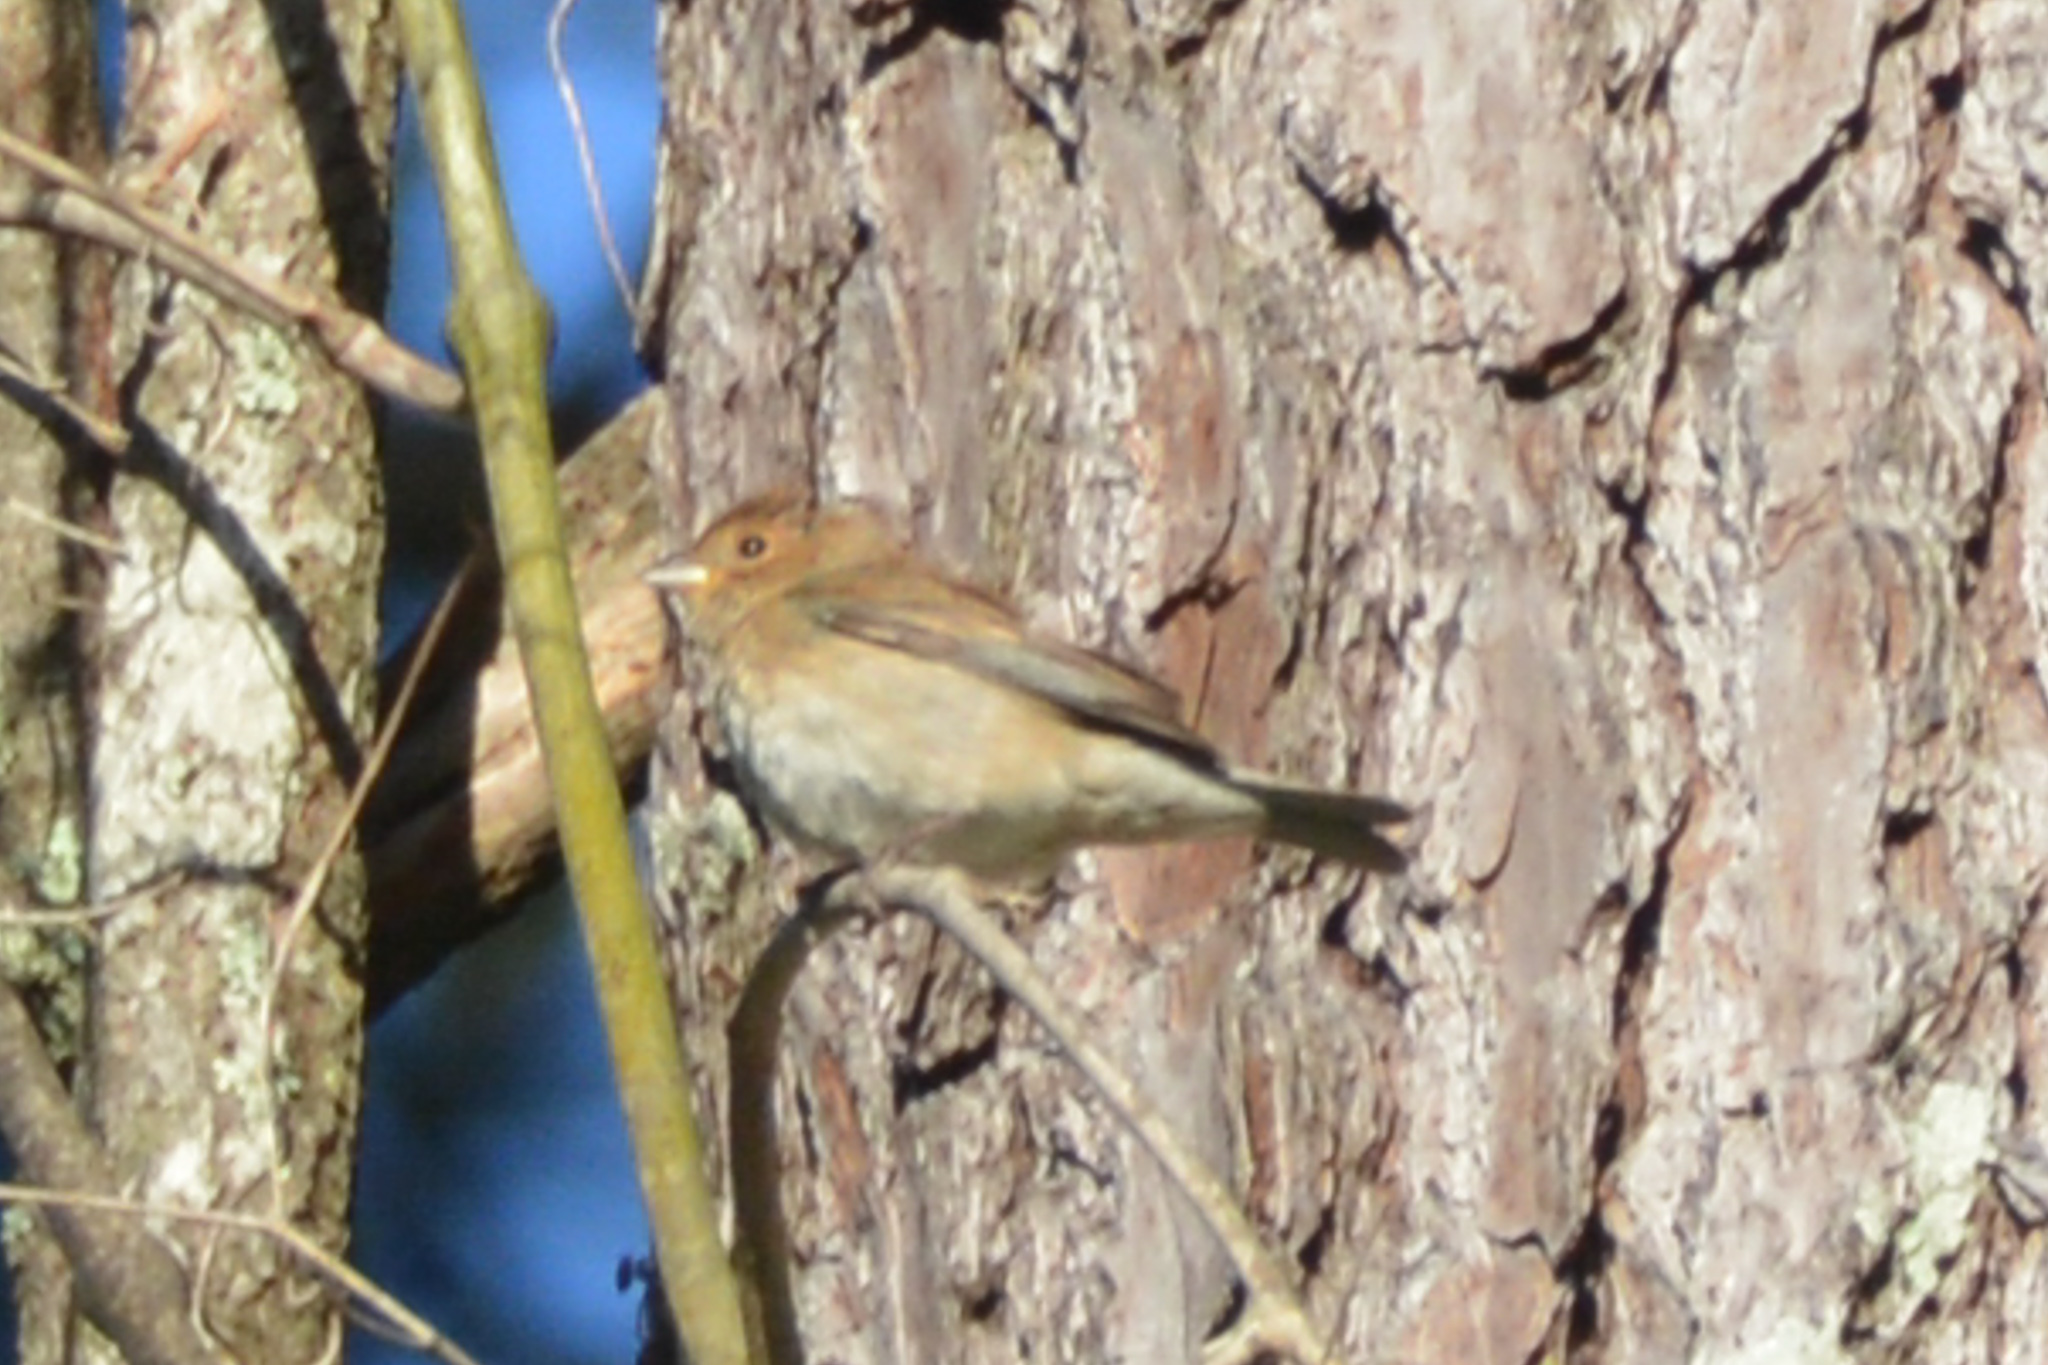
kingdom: Animalia
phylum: Chordata
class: Aves
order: Passeriformes
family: Cardinalidae
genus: Passerina
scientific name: Passerina cyanea
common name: Indigo bunting
